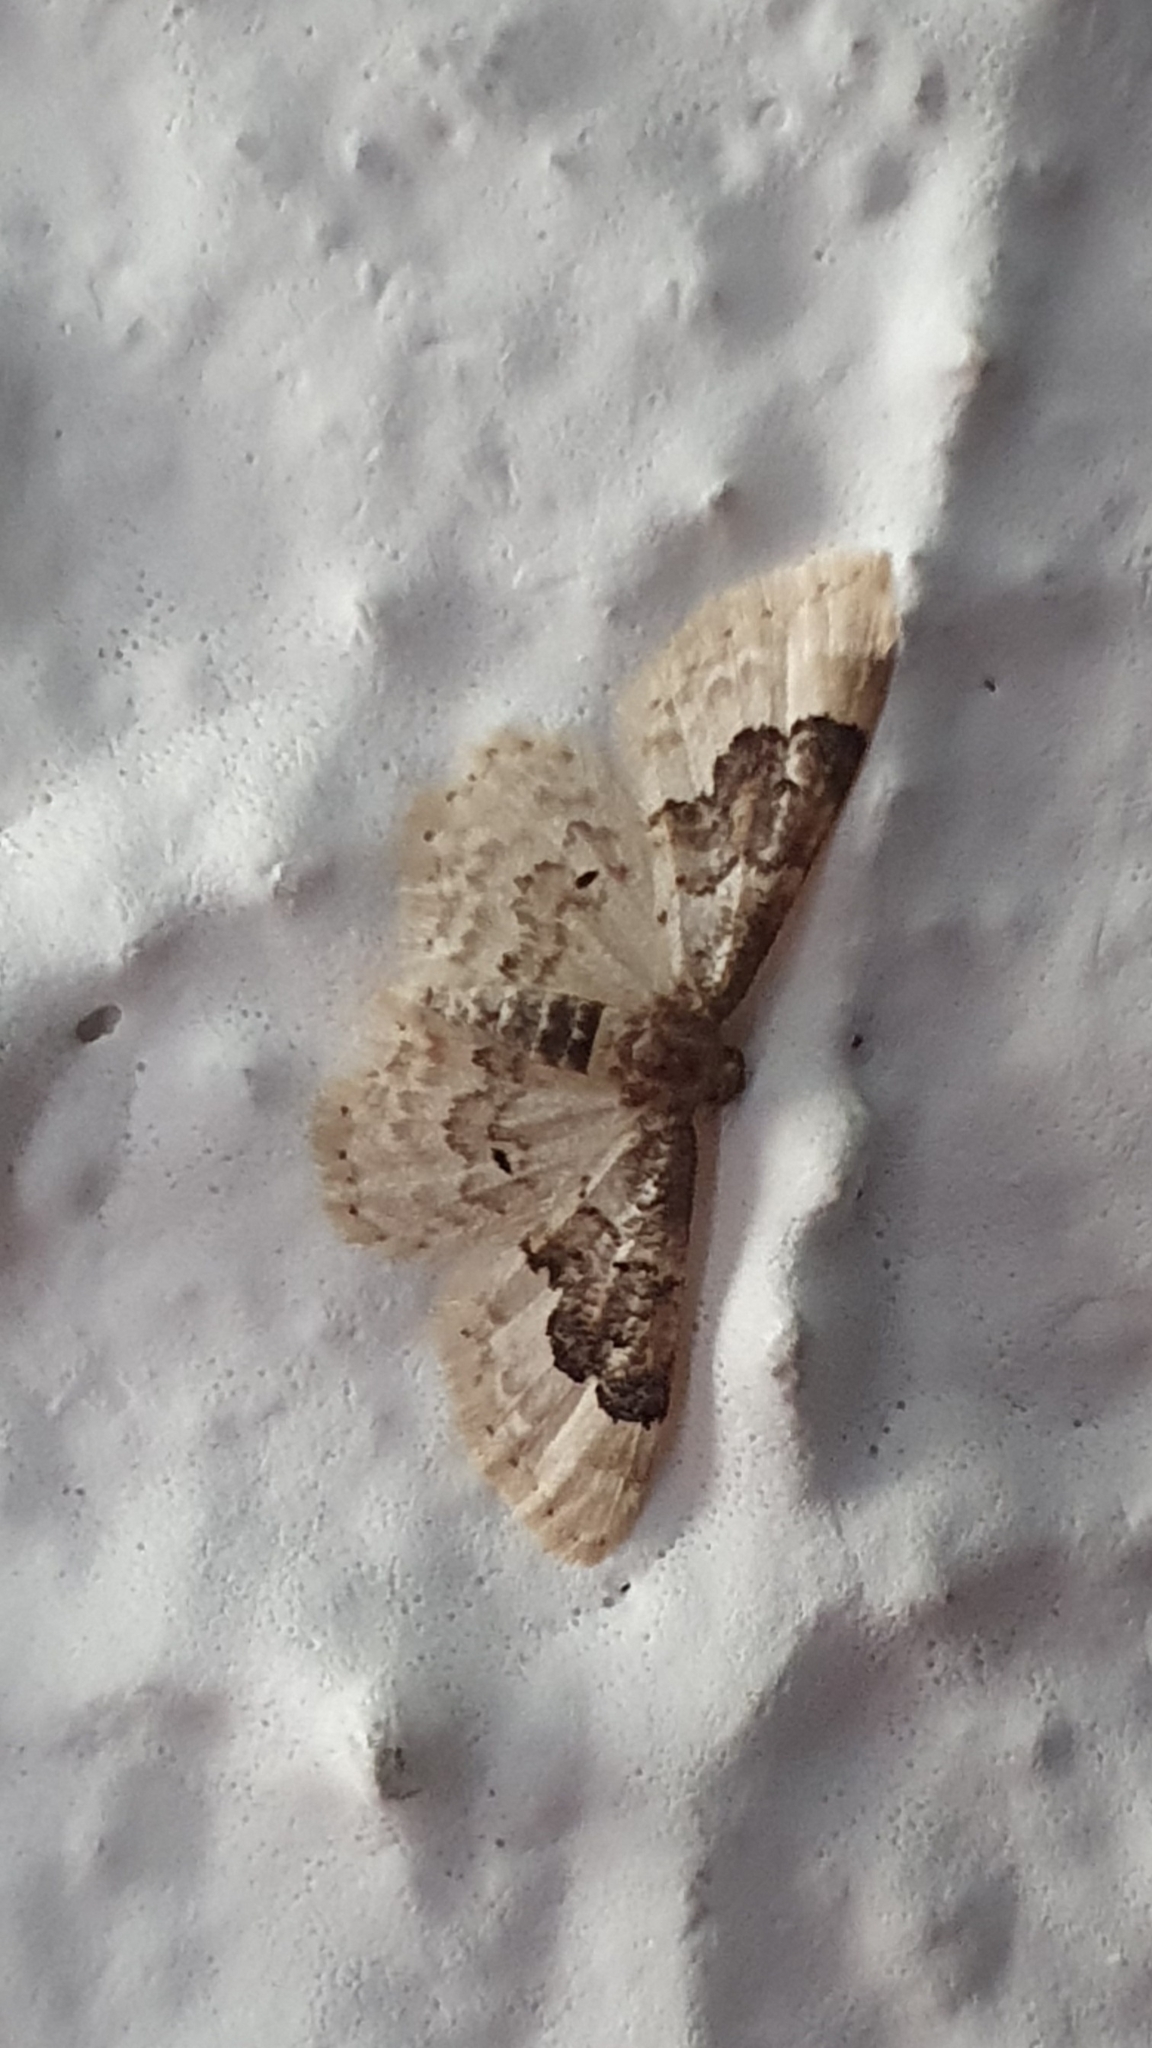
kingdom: Animalia
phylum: Arthropoda
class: Insecta
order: Lepidoptera
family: Geometridae
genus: Idaea
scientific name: Idaea rusticata
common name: Least carpet
